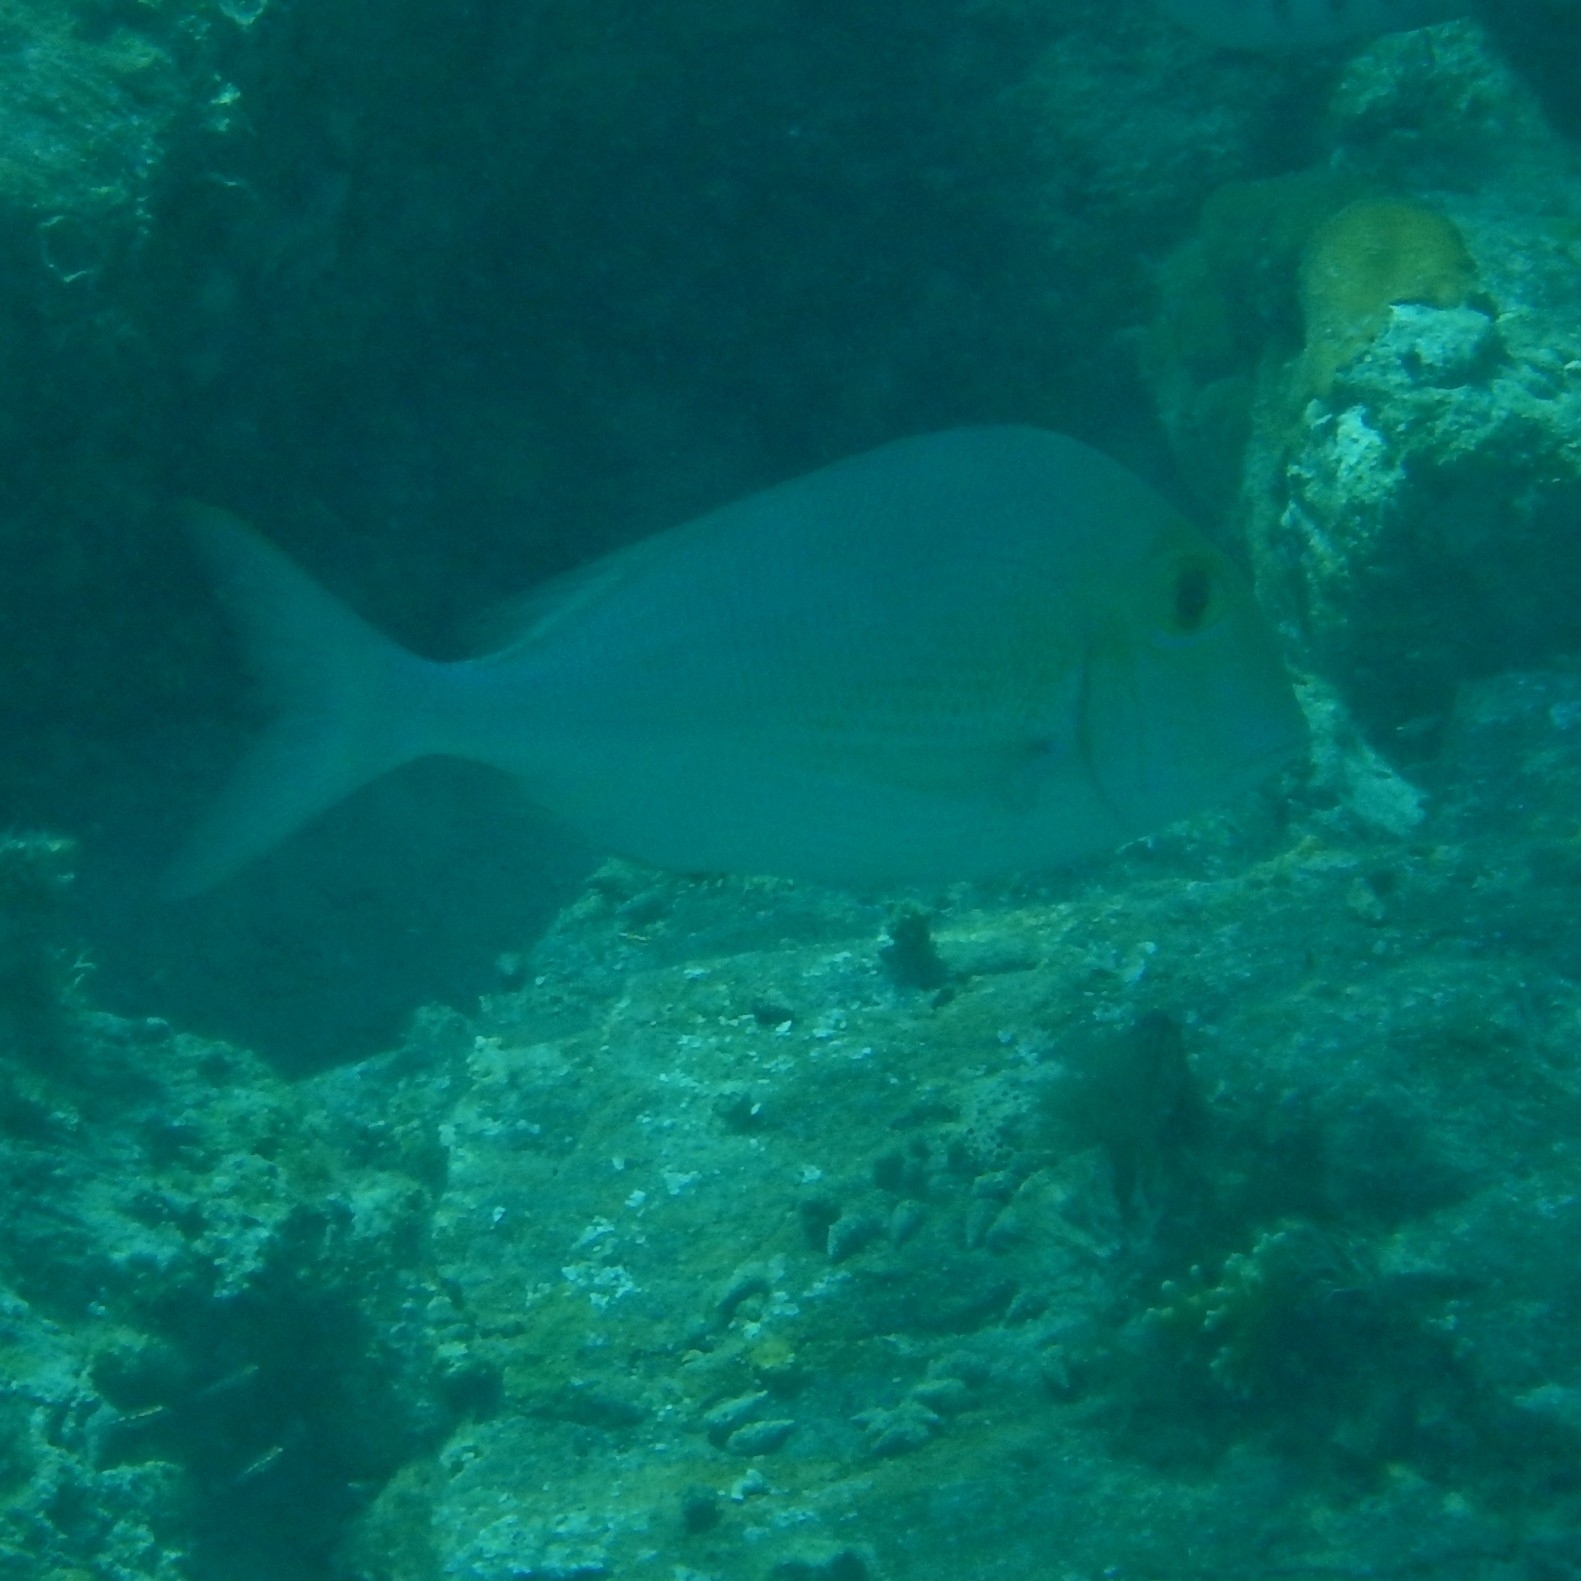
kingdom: Animalia
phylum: Chordata
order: Perciformes
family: Sparidae
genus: Calamus
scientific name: Calamus calamus
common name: Saucereye porgy
